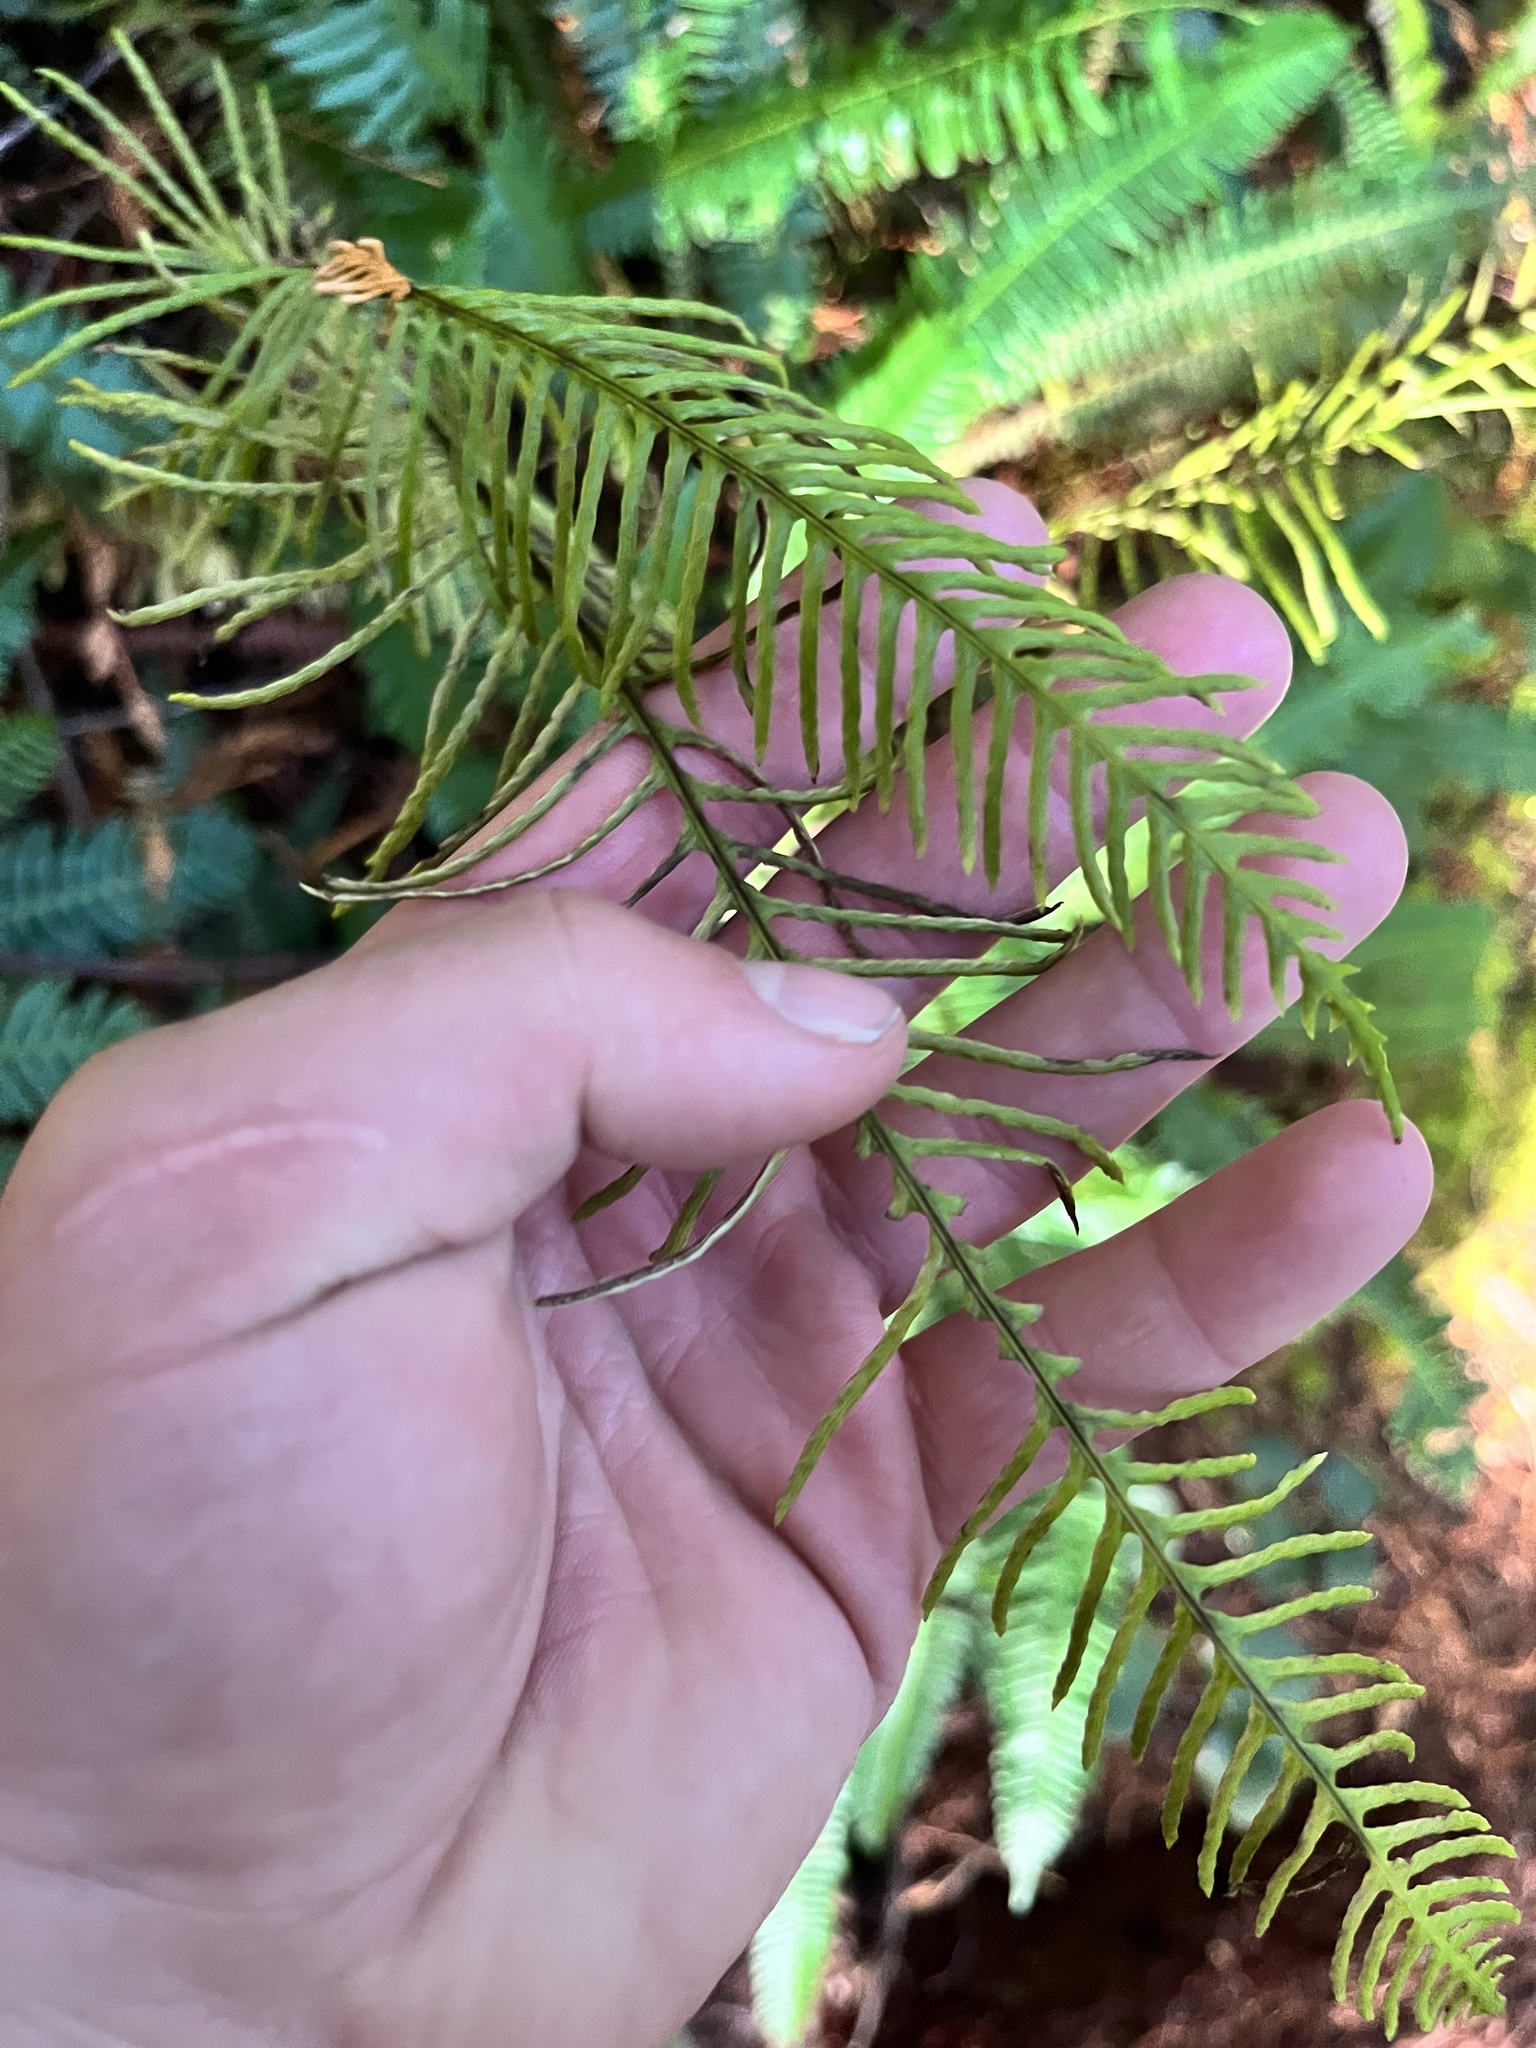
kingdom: Plantae
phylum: Tracheophyta
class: Polypodiopsida
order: Polypodiales
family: Blechnaceae
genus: Struthiopteris
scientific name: Struthiopteris spicant
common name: Deer fern
